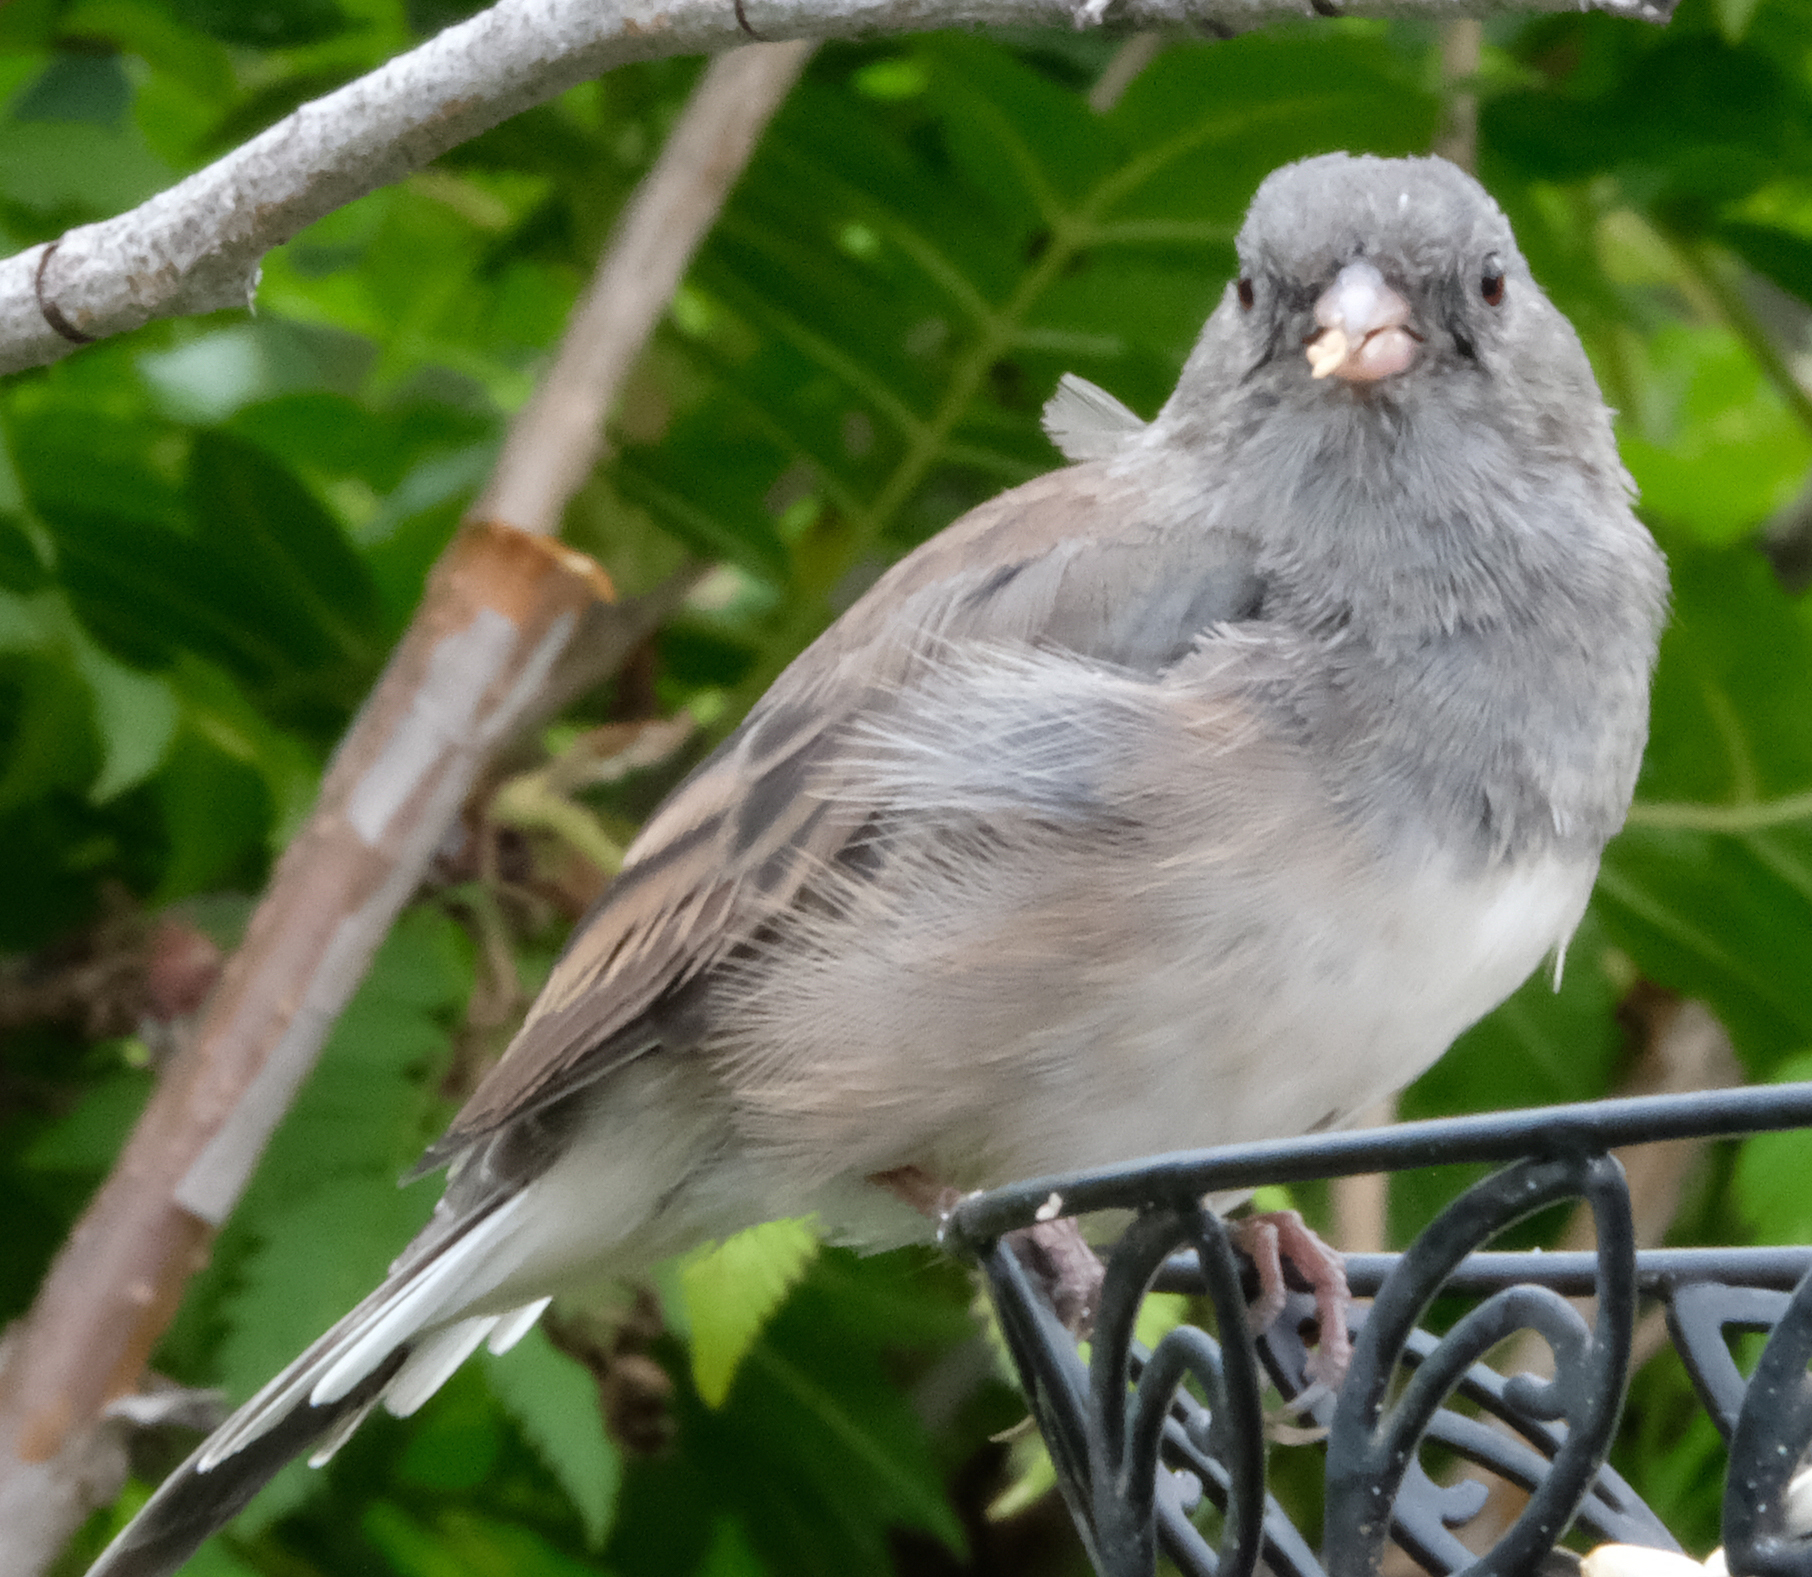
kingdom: Animalia
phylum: Chordata
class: Aves
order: Passeriformes
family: Passerellidae
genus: Junco
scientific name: Junco hyemalis
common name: Dark-eyed junco
